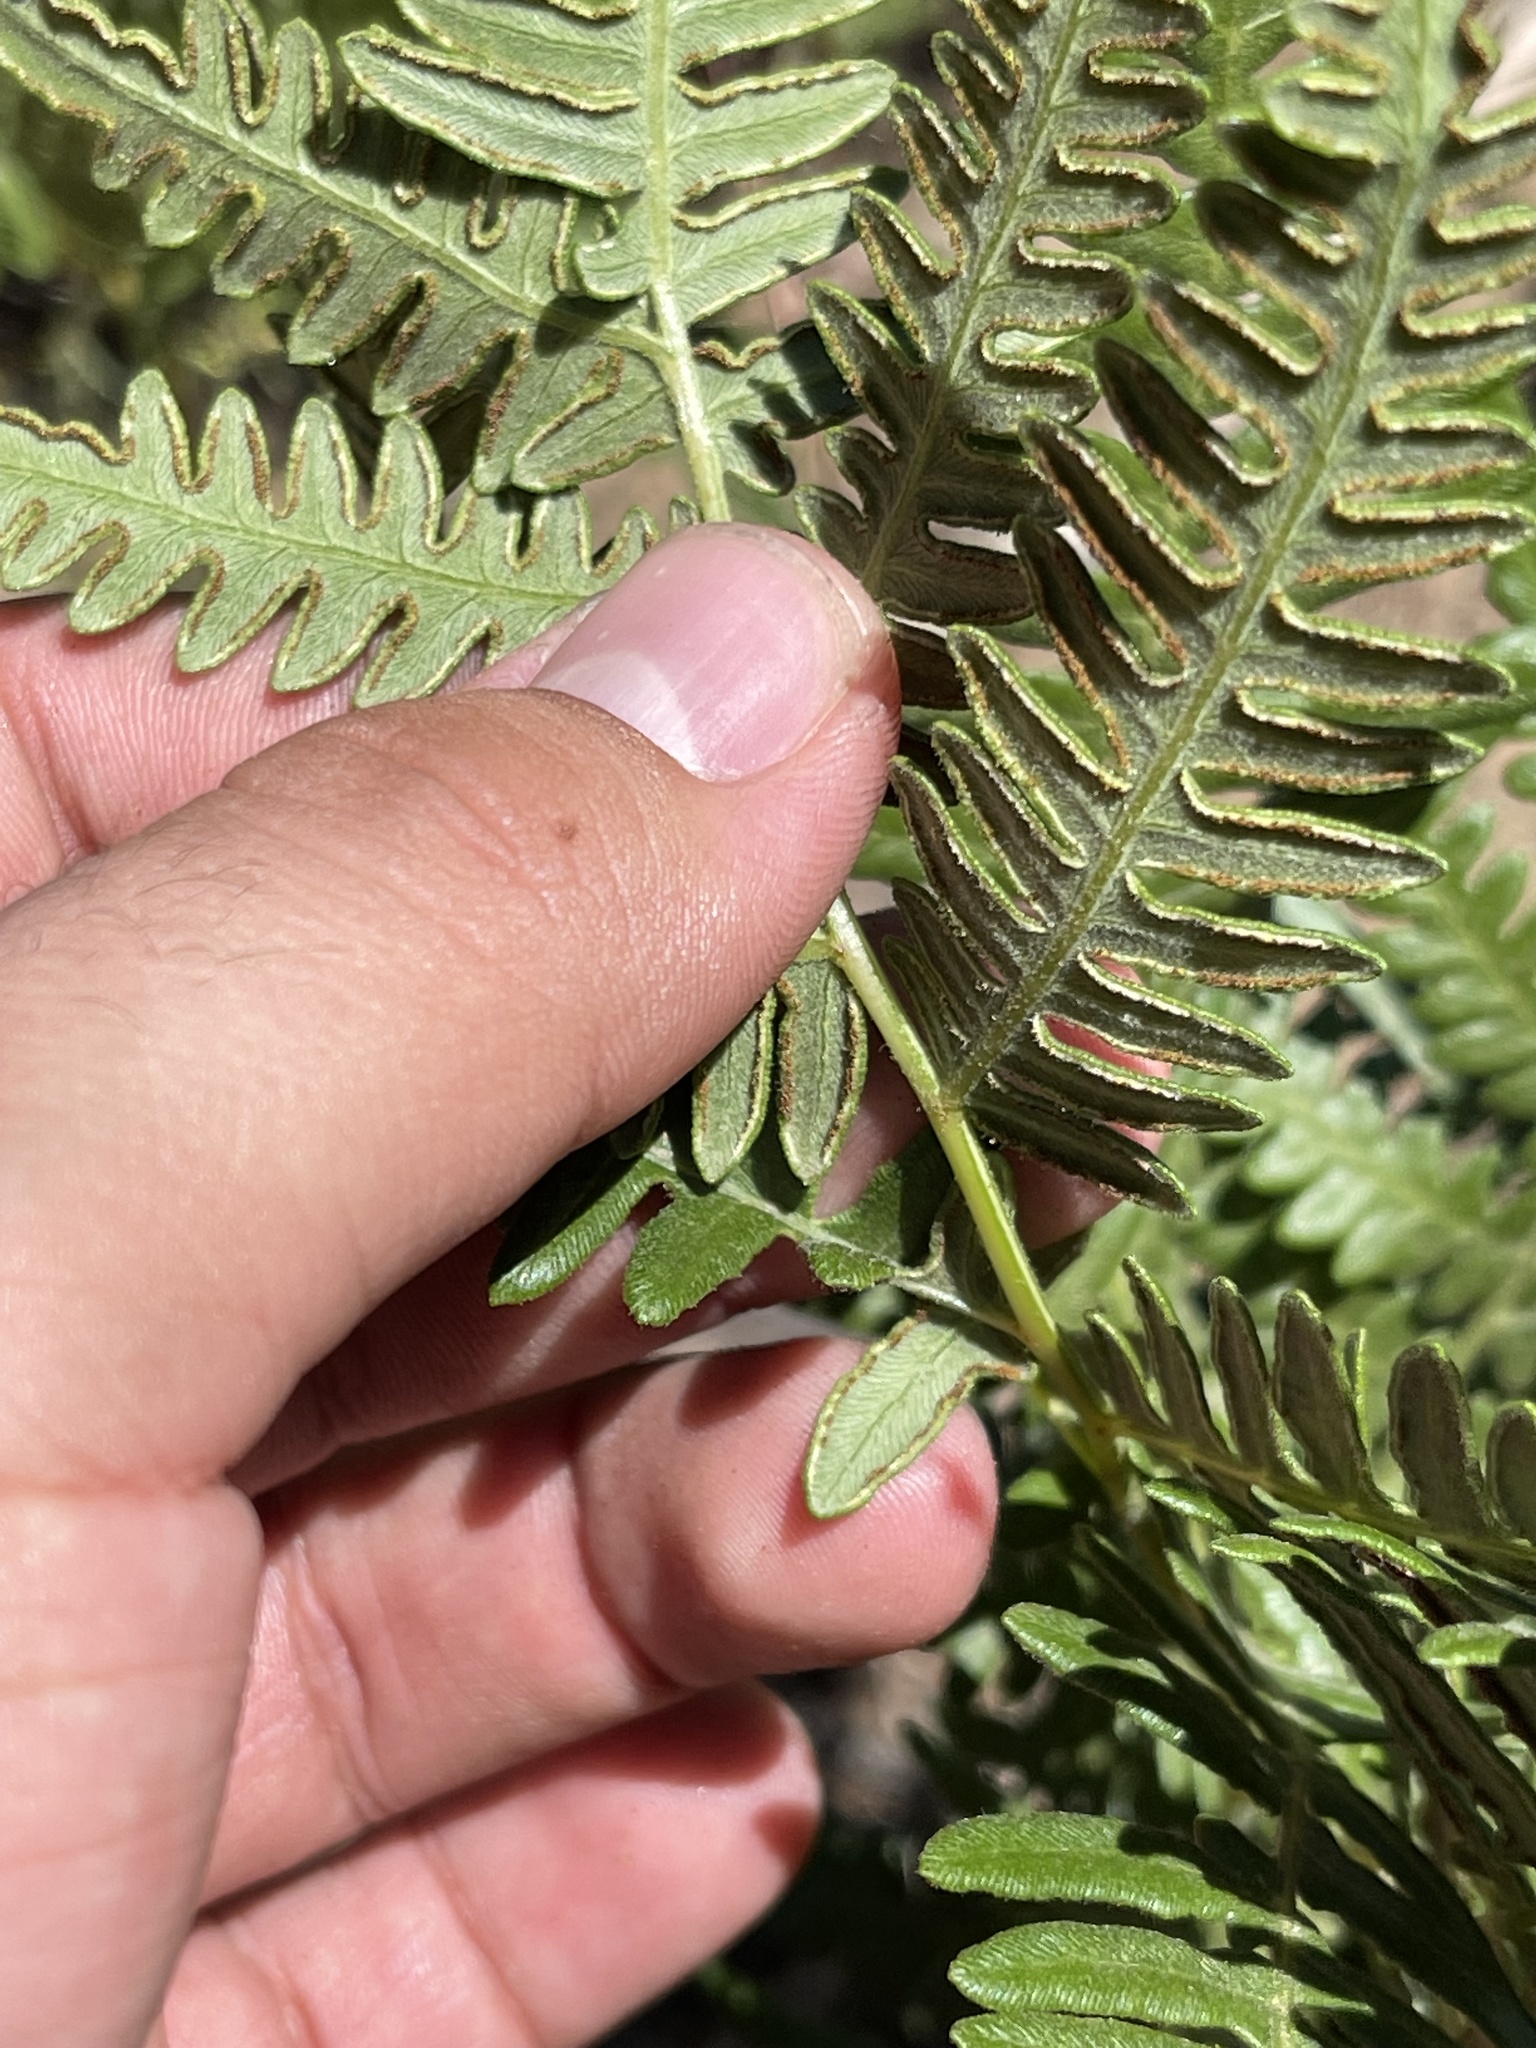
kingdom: Plantae
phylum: Tracheophyta
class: Polypodiopsida
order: Polypodiales
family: Dennstaedtiaceae
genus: Pteridium
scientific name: Pteridium aquilinum
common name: Bracken
